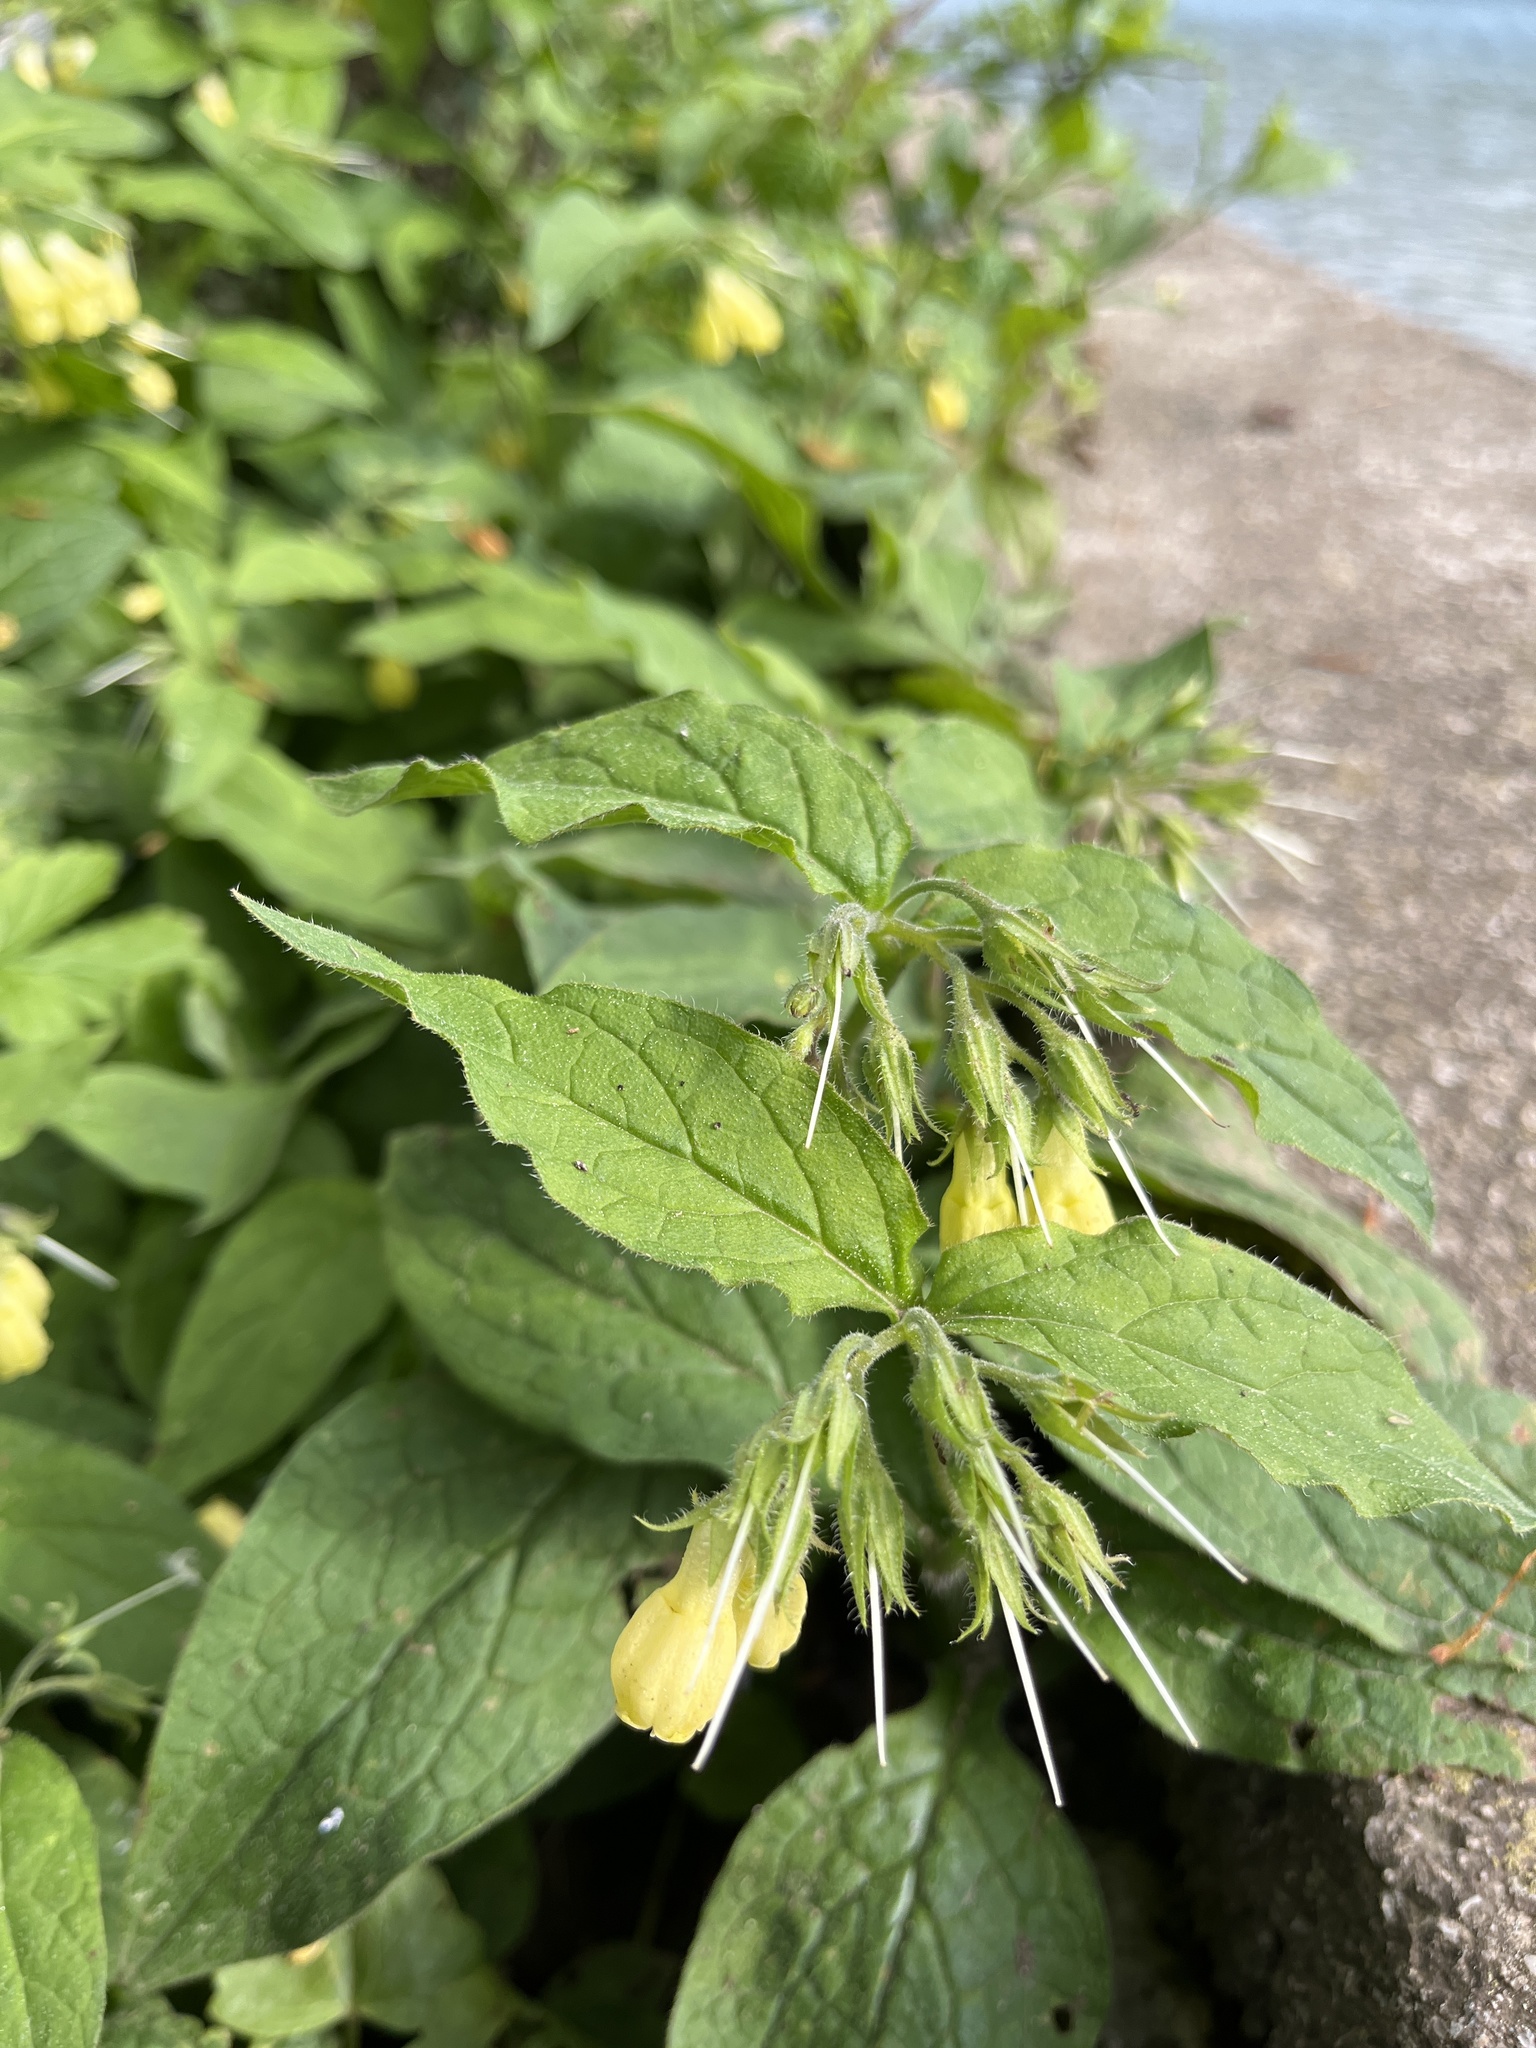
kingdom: Plantae
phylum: Tracheophyta
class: Magnoliopsida
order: Boraginales
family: Boraginaceae
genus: Symphytum
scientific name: Symphytum tuberosum
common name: Tuberous comfrey
